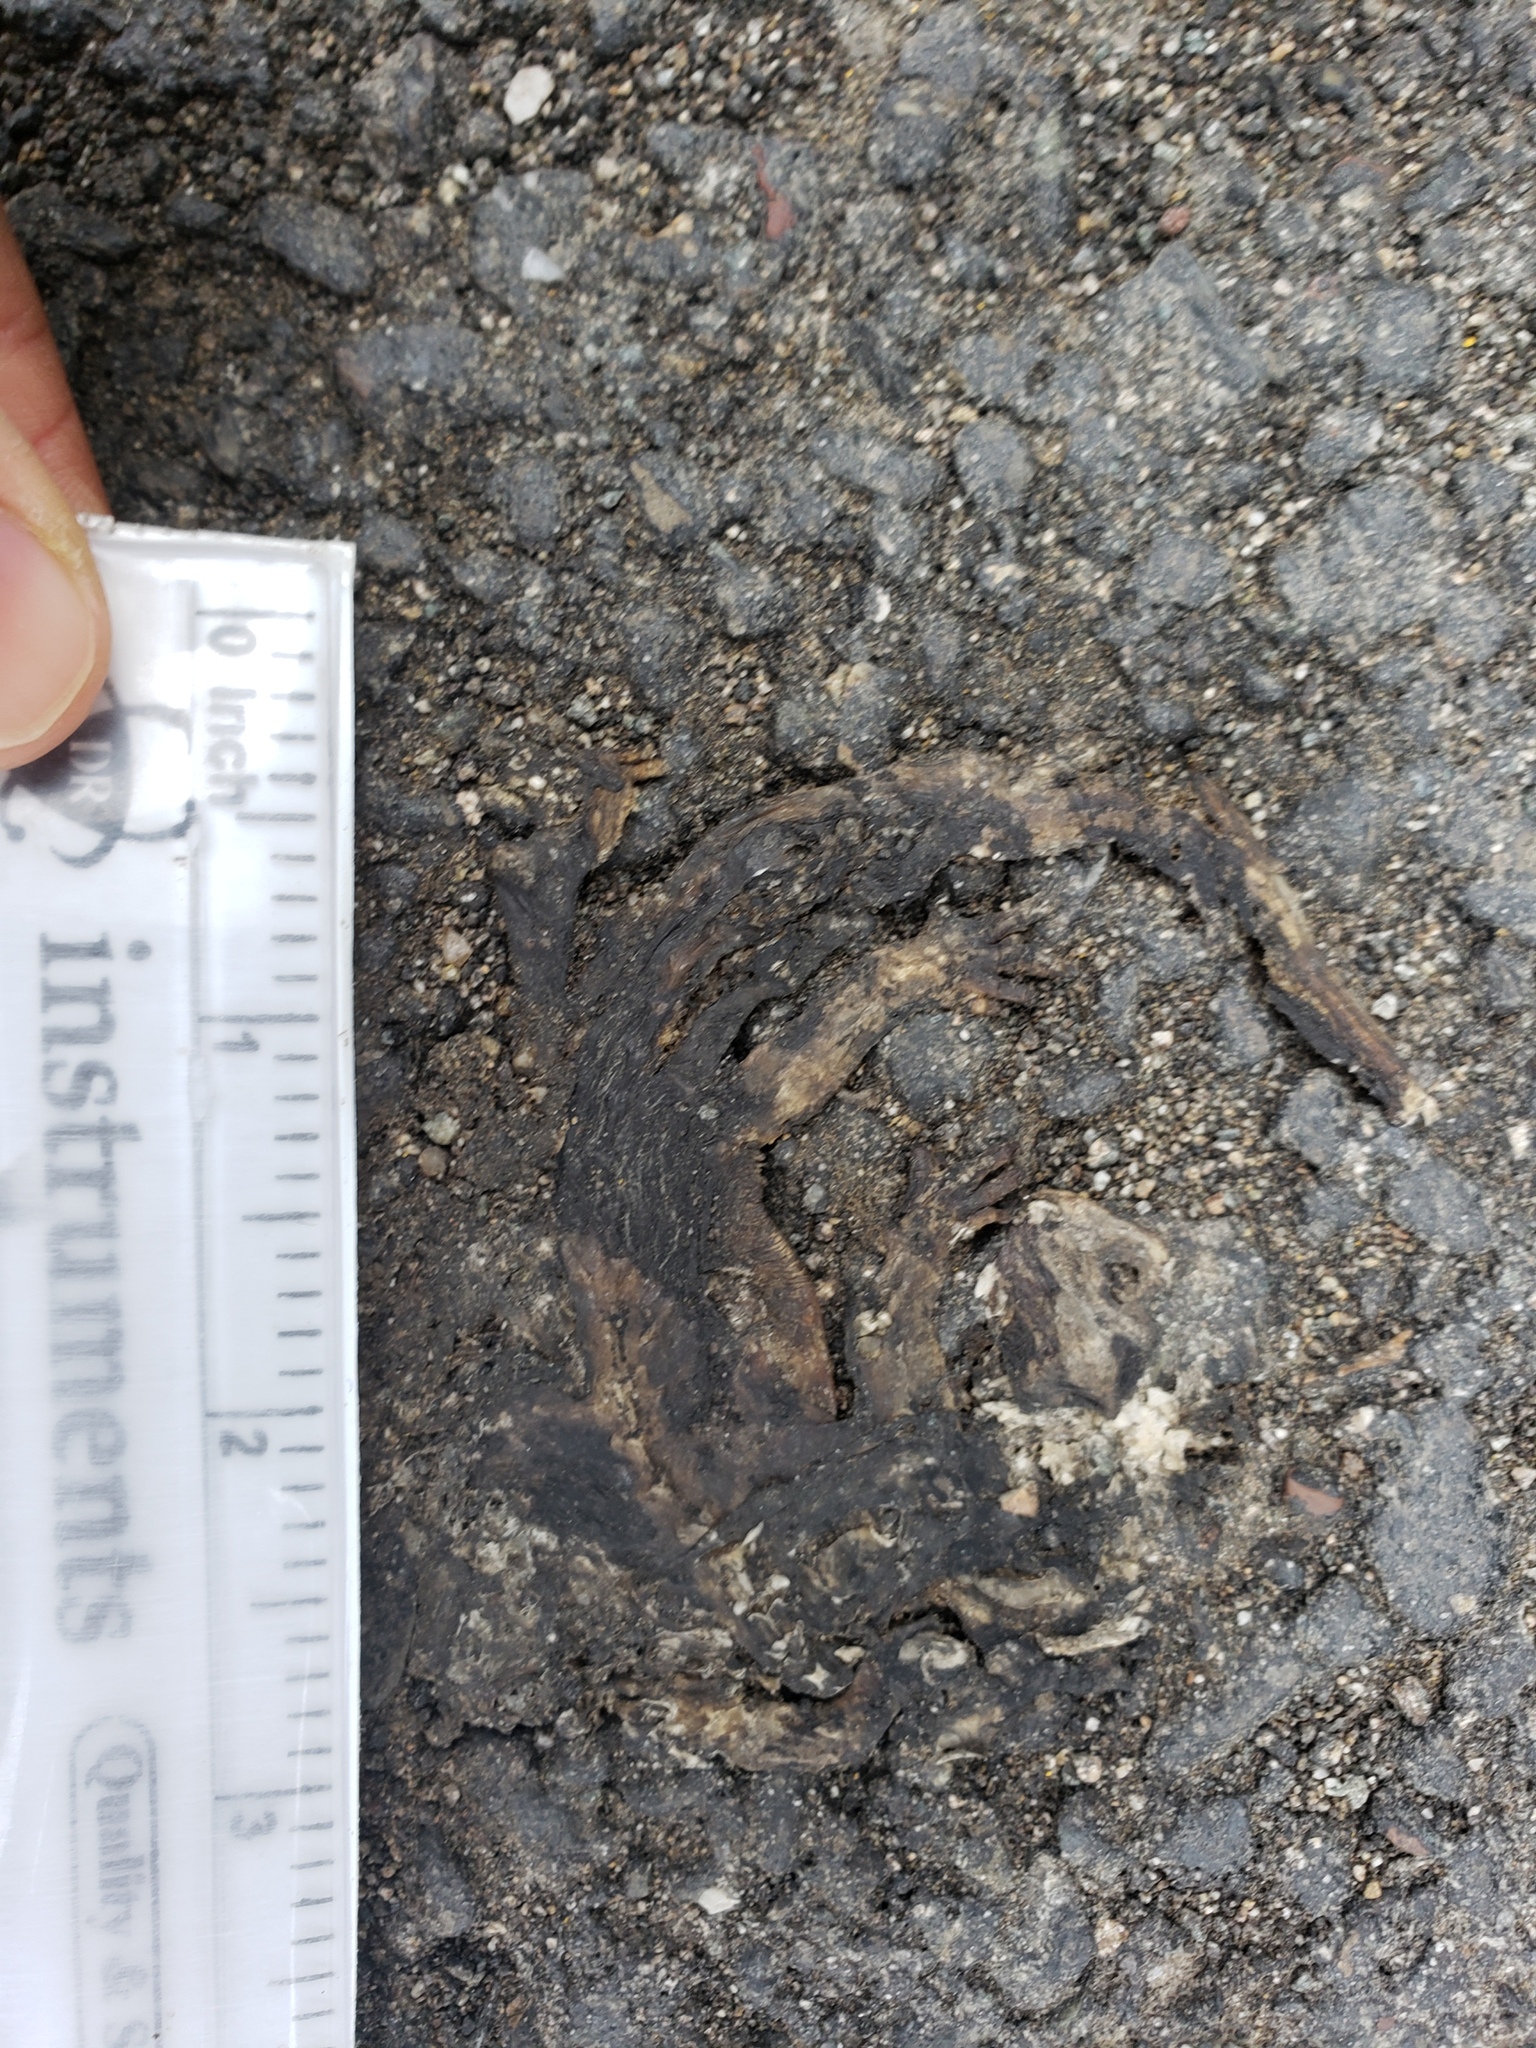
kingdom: Animalia
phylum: Chordata
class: Amphibia
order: Caudata
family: Salamandridae
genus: Taricha
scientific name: Taricha
